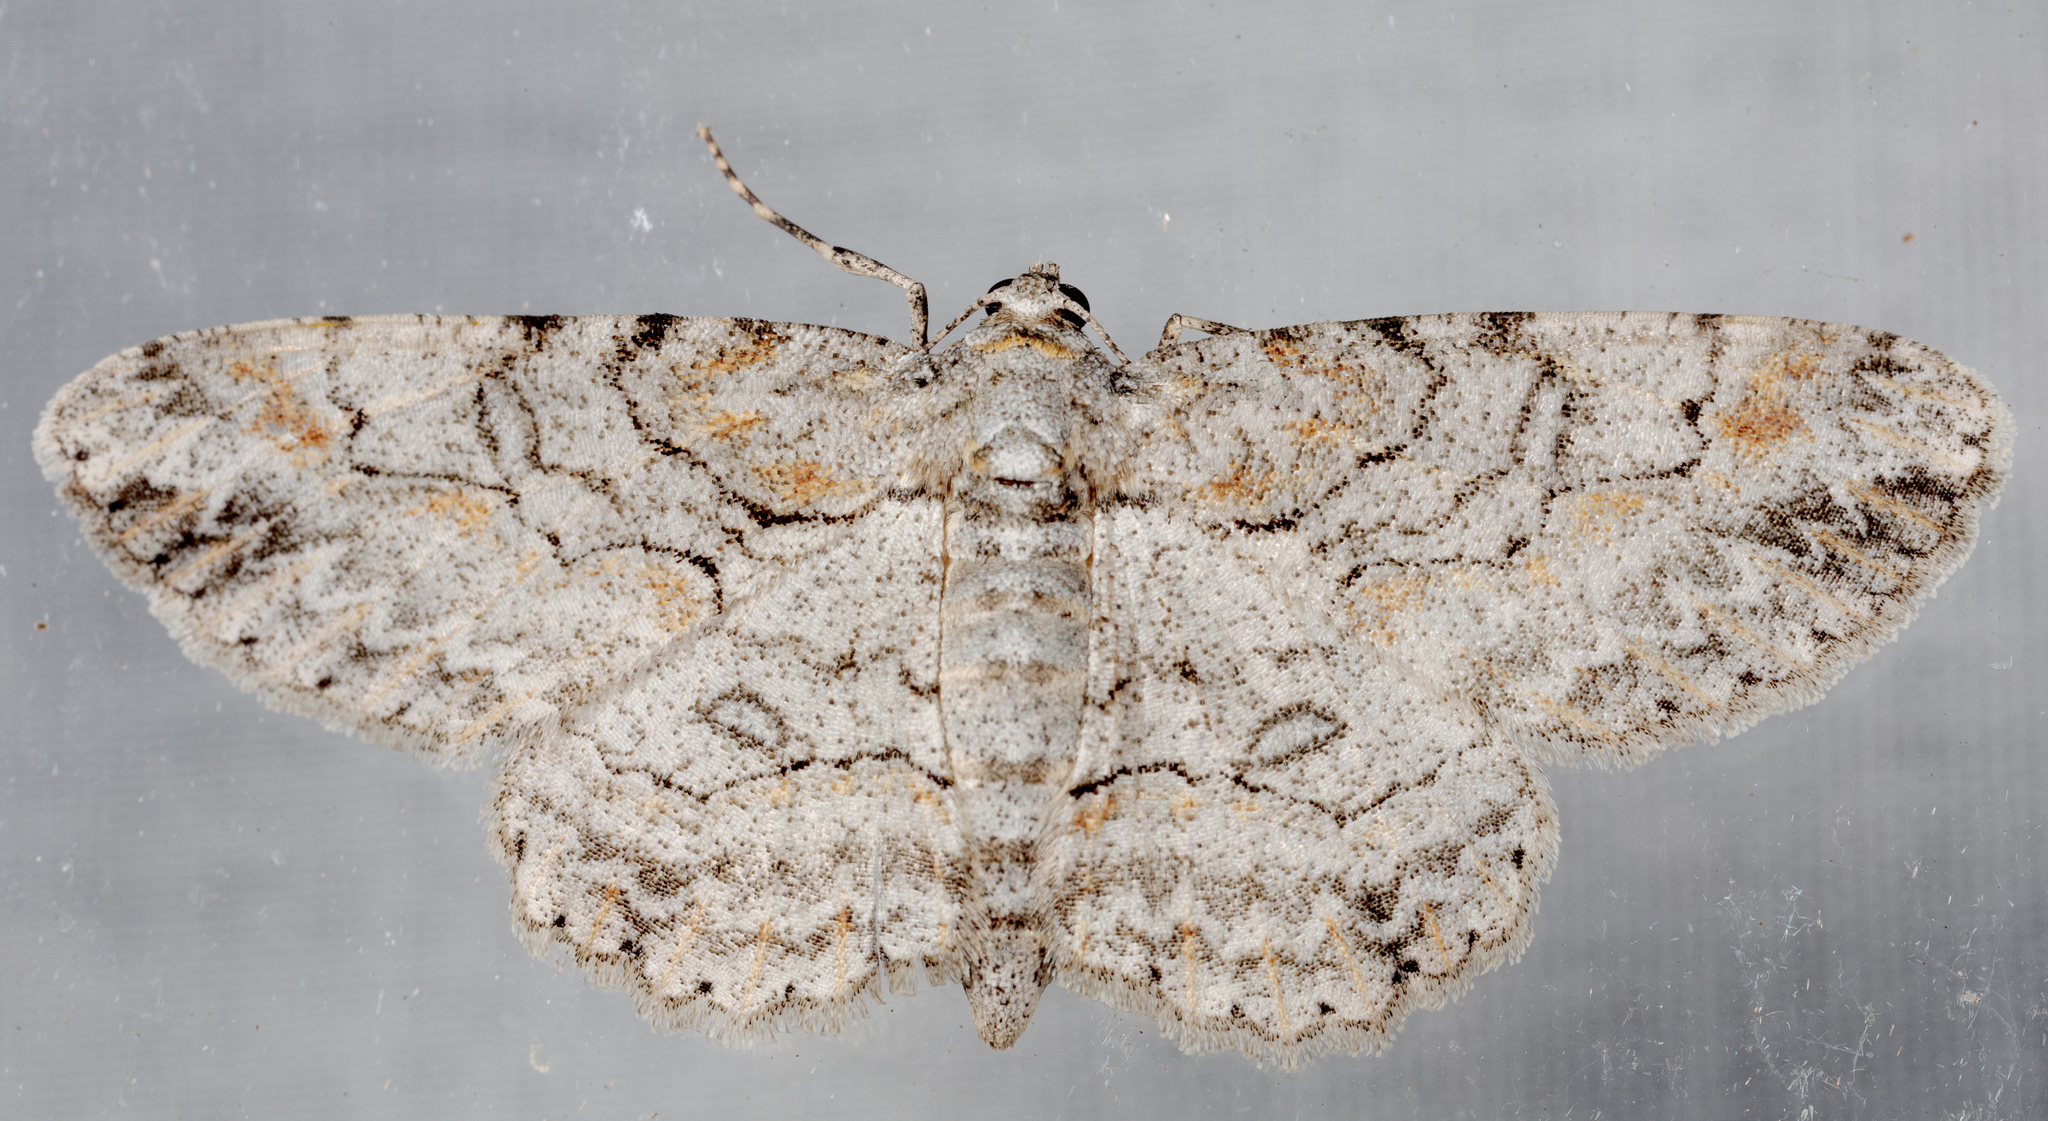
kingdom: Animalia
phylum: Arthropoda
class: Insecta
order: Lepidoptera
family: Geometridae
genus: Iridopsis
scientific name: Iridopsis defectaria
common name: Brown-shaded gray
